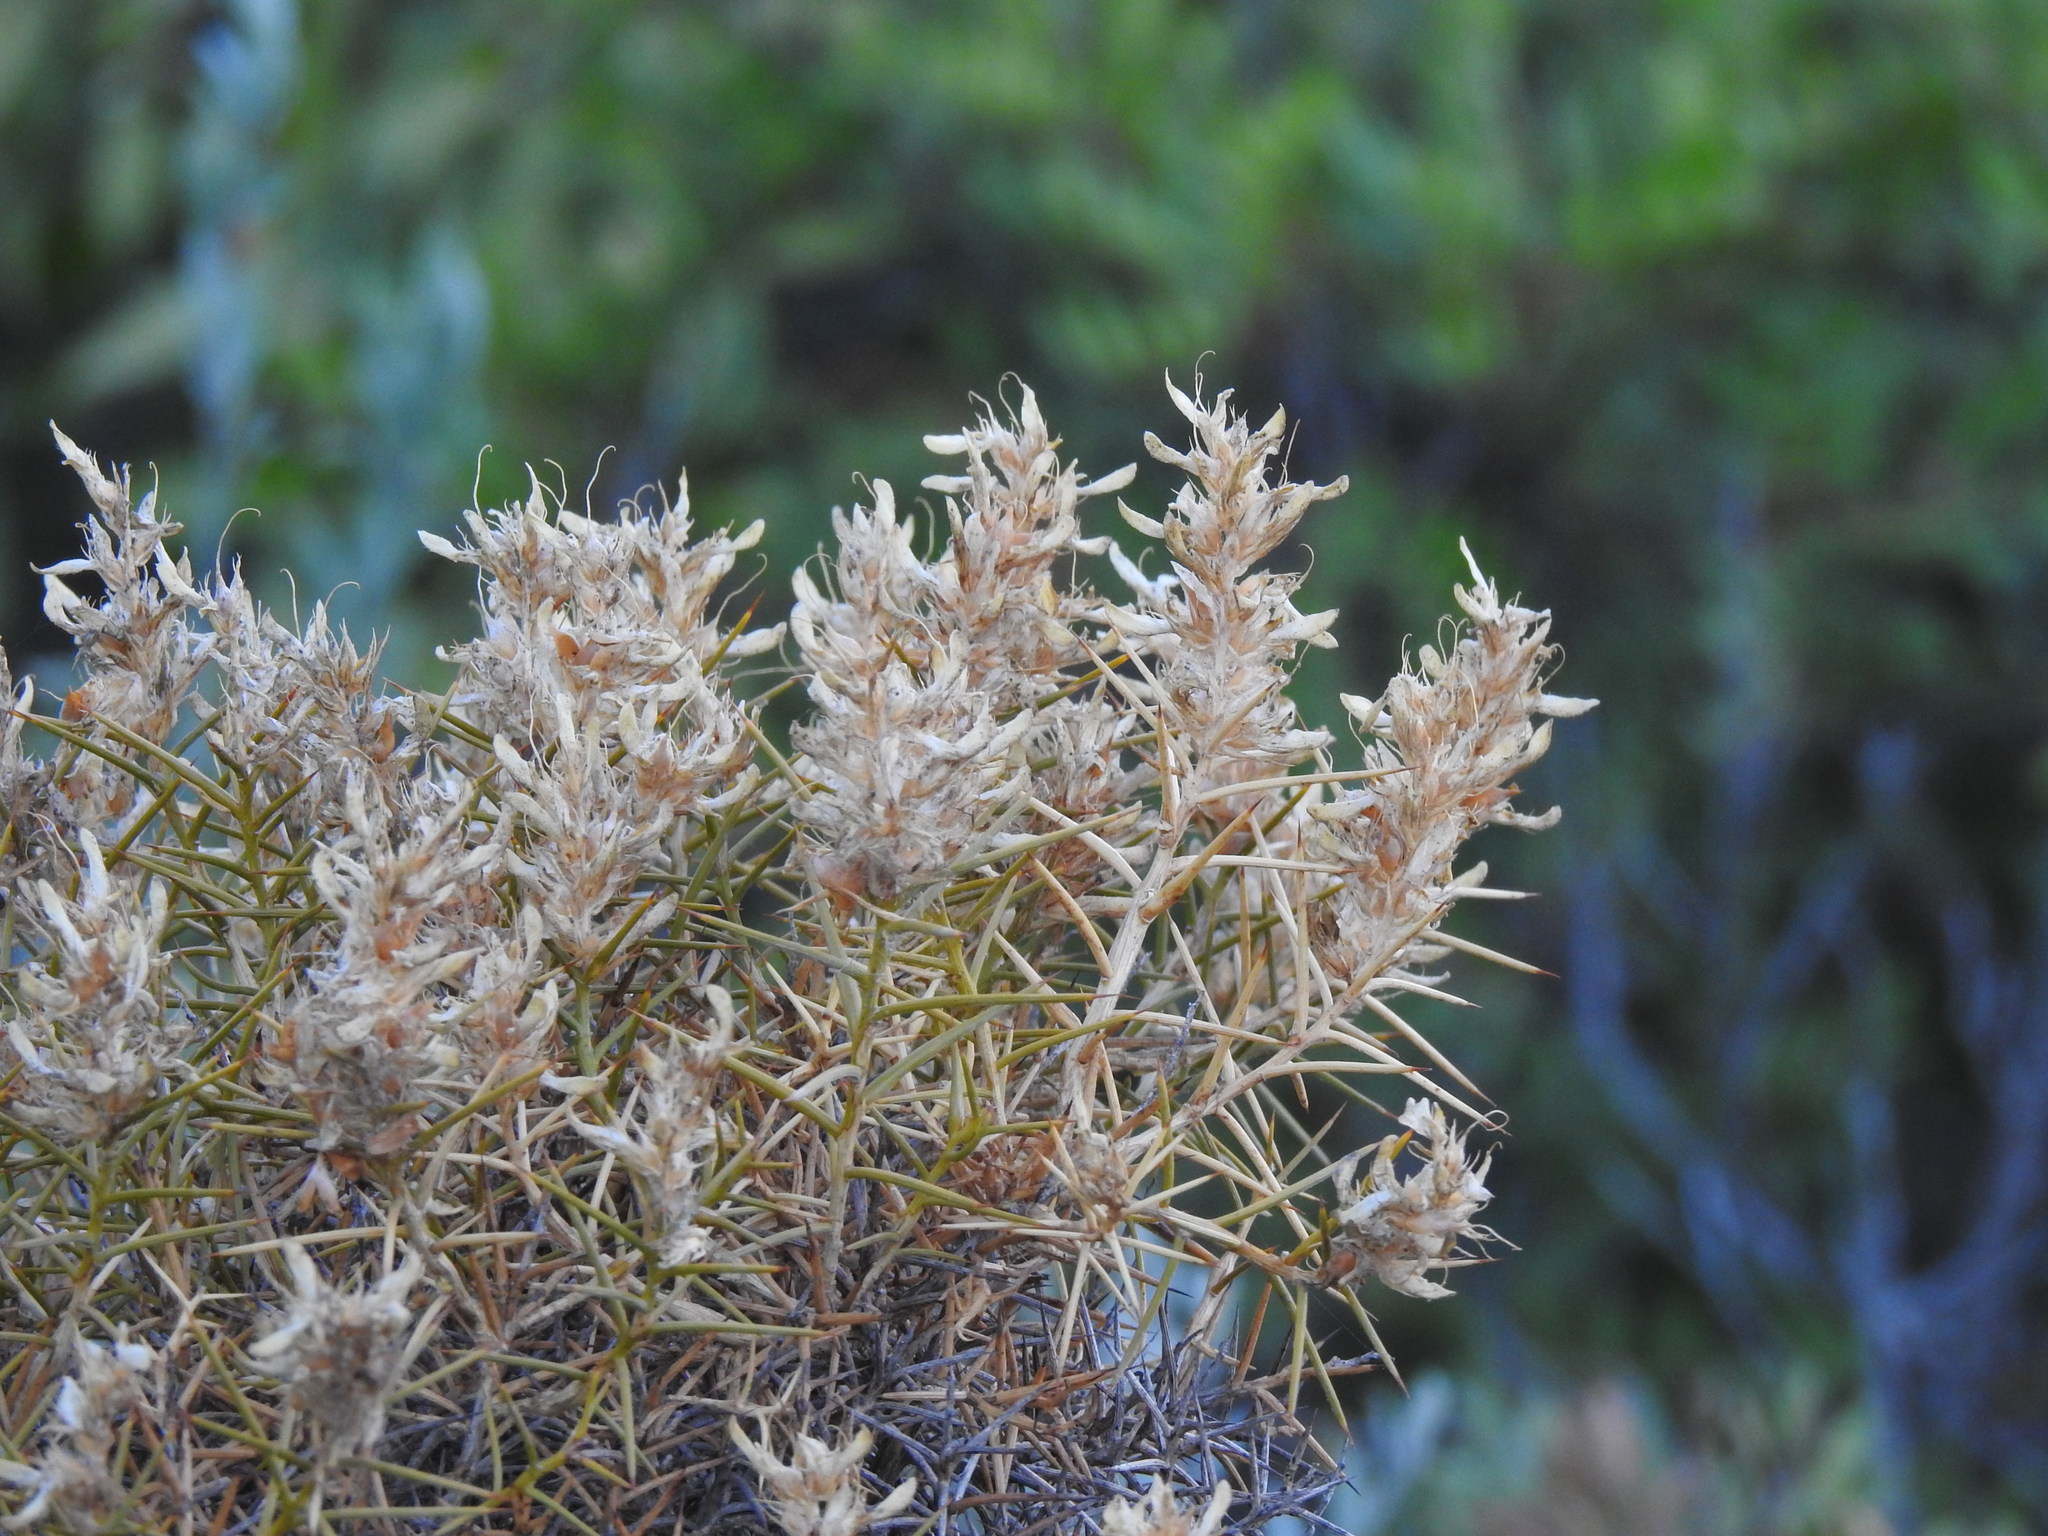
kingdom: Plantae
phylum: Tracheophyta
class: Magnoliopsida
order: Fabales
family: Fabaceae
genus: Genista
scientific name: Genista hirsuta
